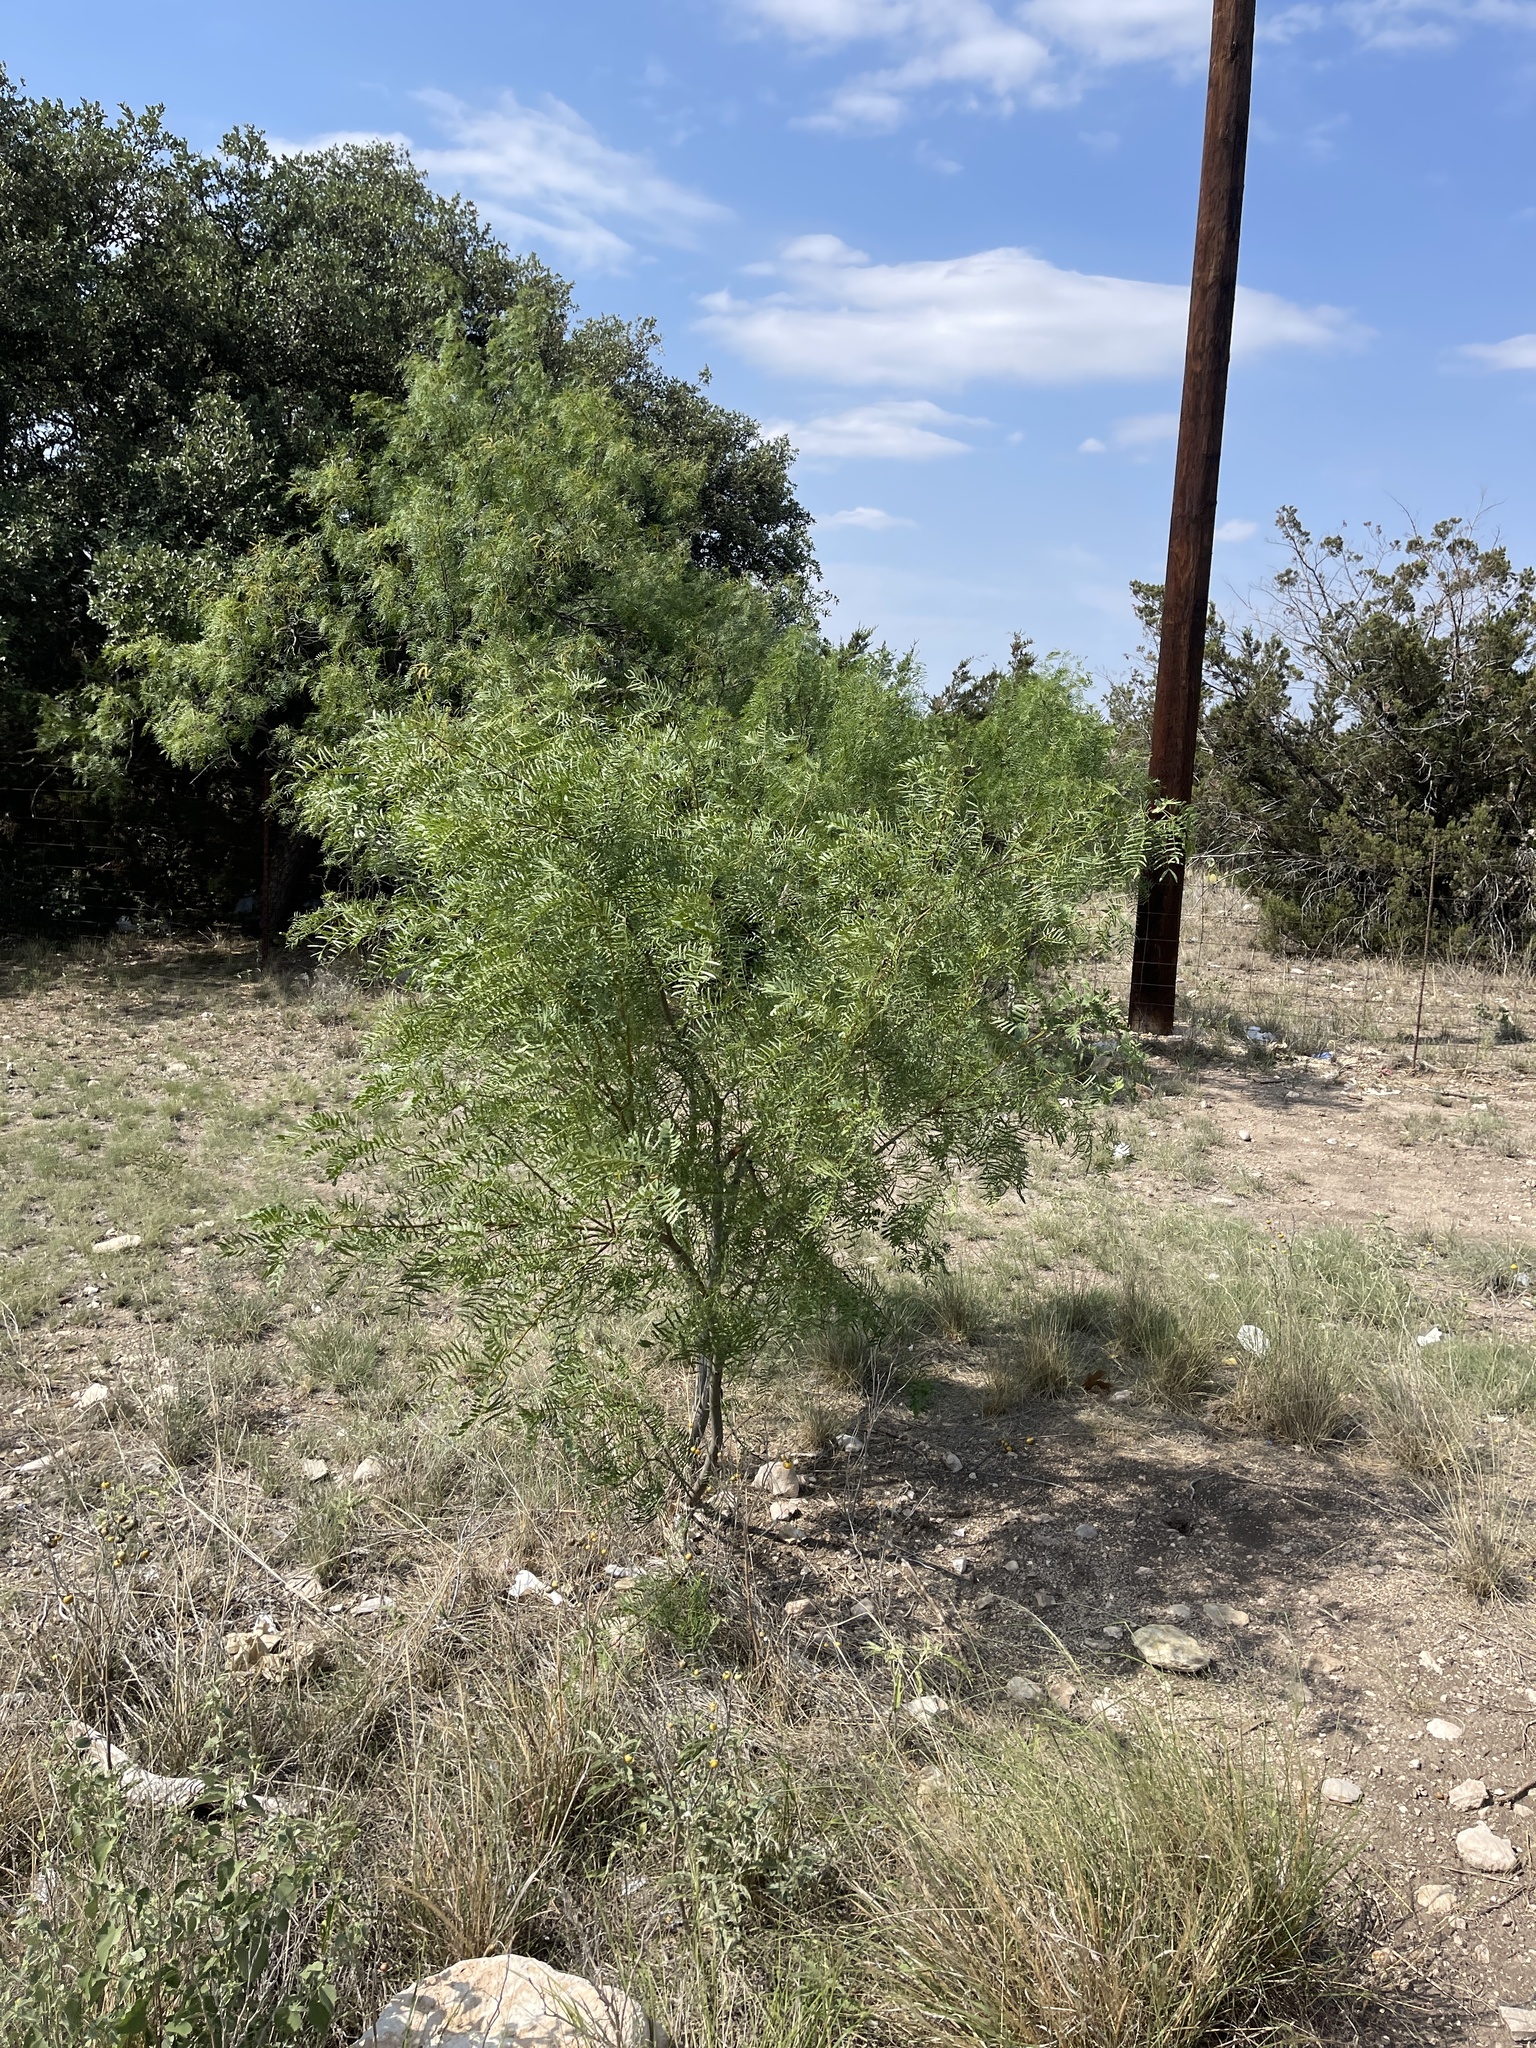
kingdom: Plantae
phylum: Tracheophyta
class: Magnoliopsida
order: Fabales
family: Fabaceae
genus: Prosopis
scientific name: Prosopis glandulosa
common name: Honey mesquite
